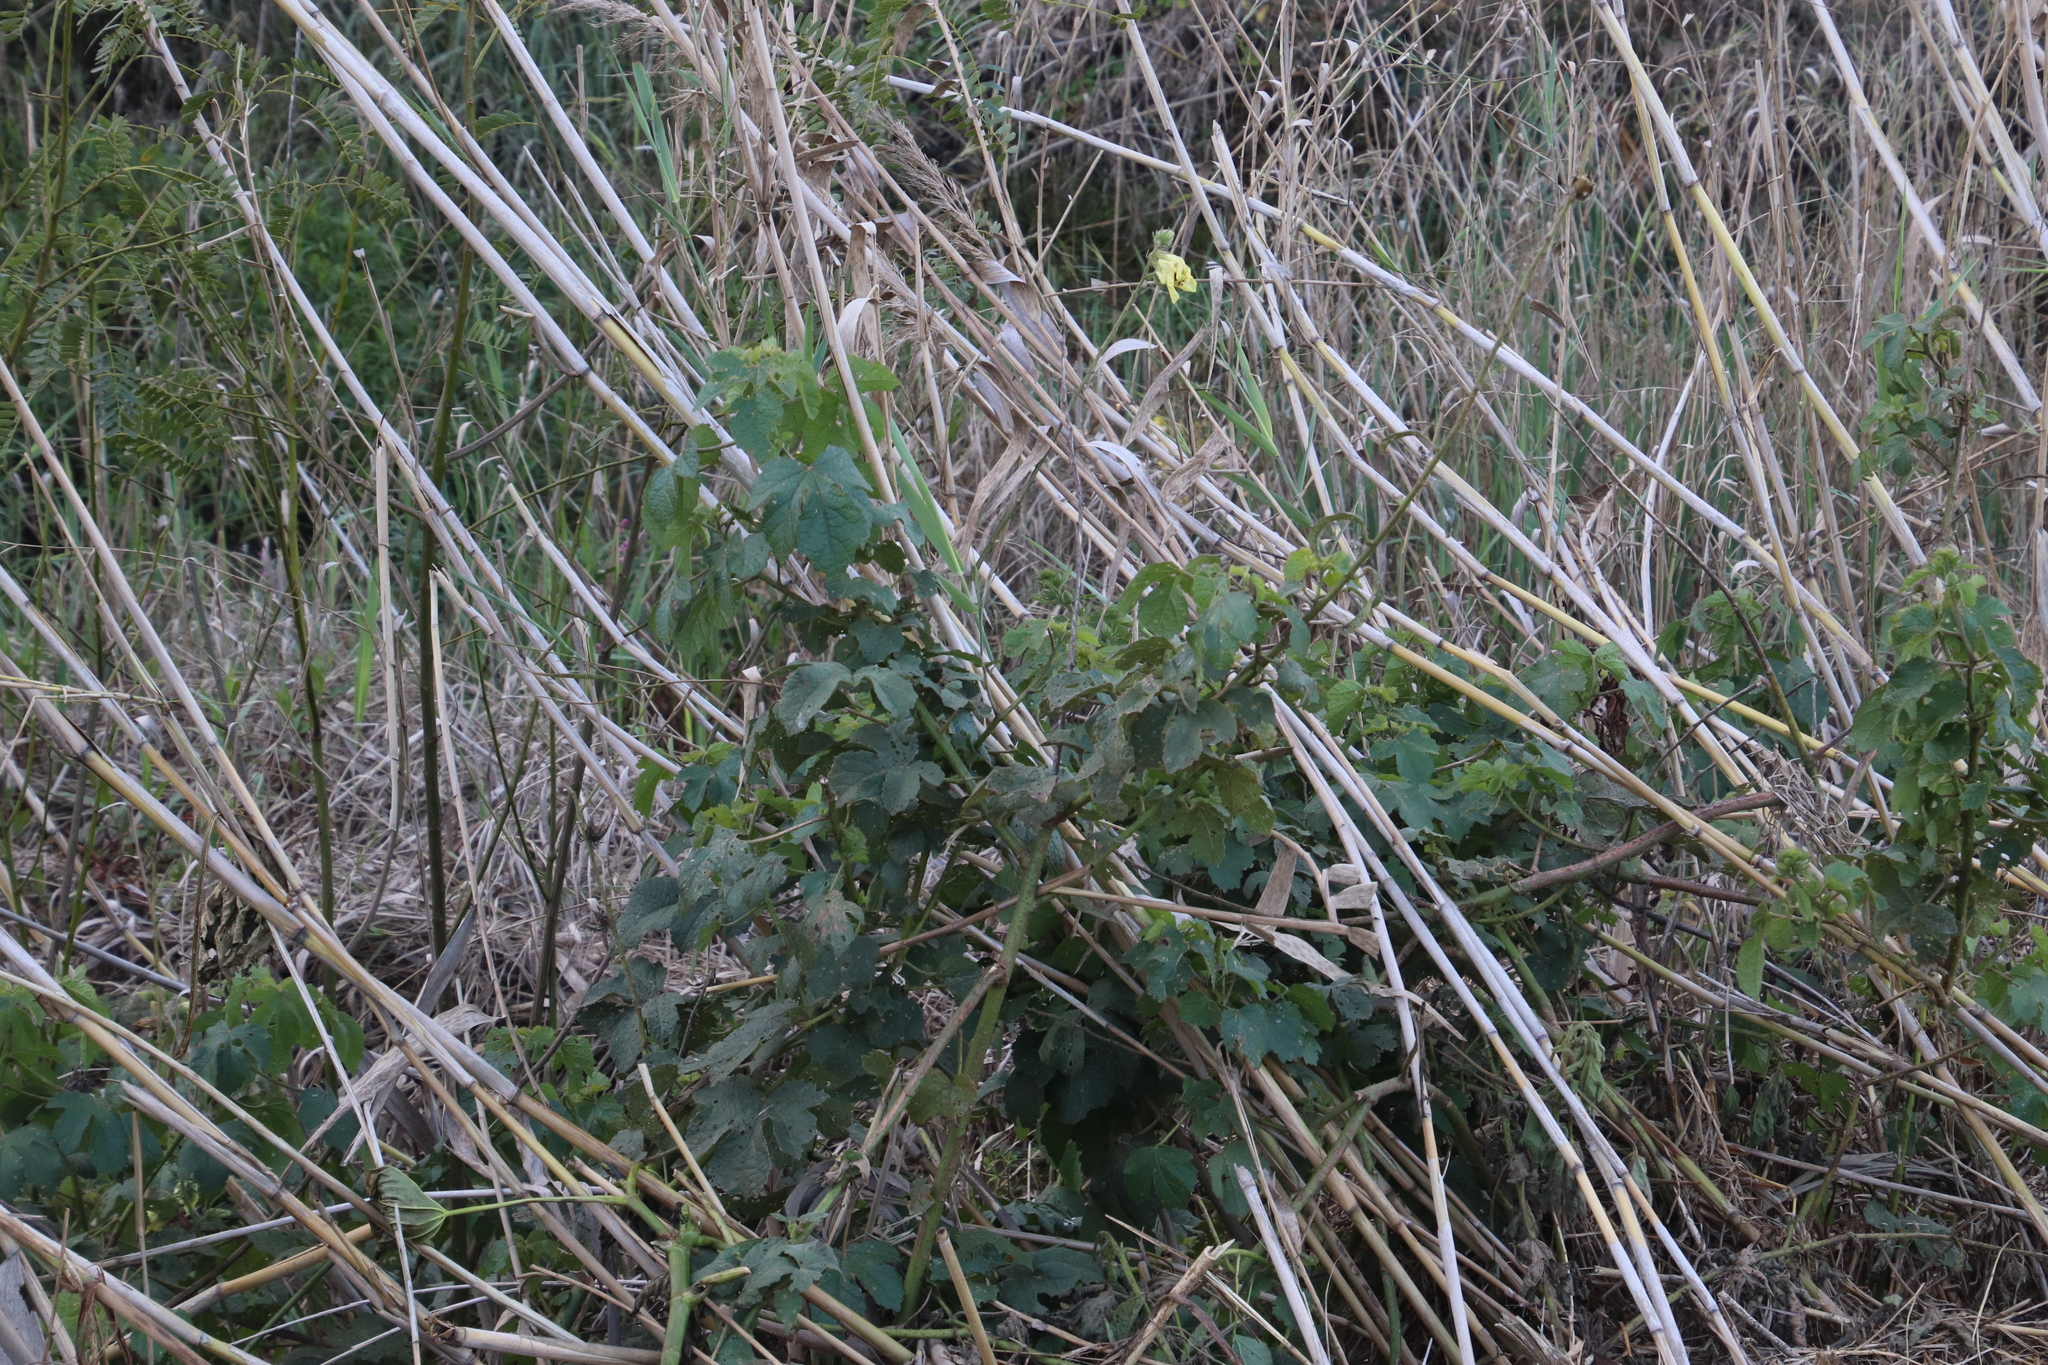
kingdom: Plantae
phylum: Tracheophyta
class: Magnoliopsida
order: Malvales
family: Malvaceae
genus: Hibiscus
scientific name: Hibiscus diversifolius
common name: Cape hibiscus
